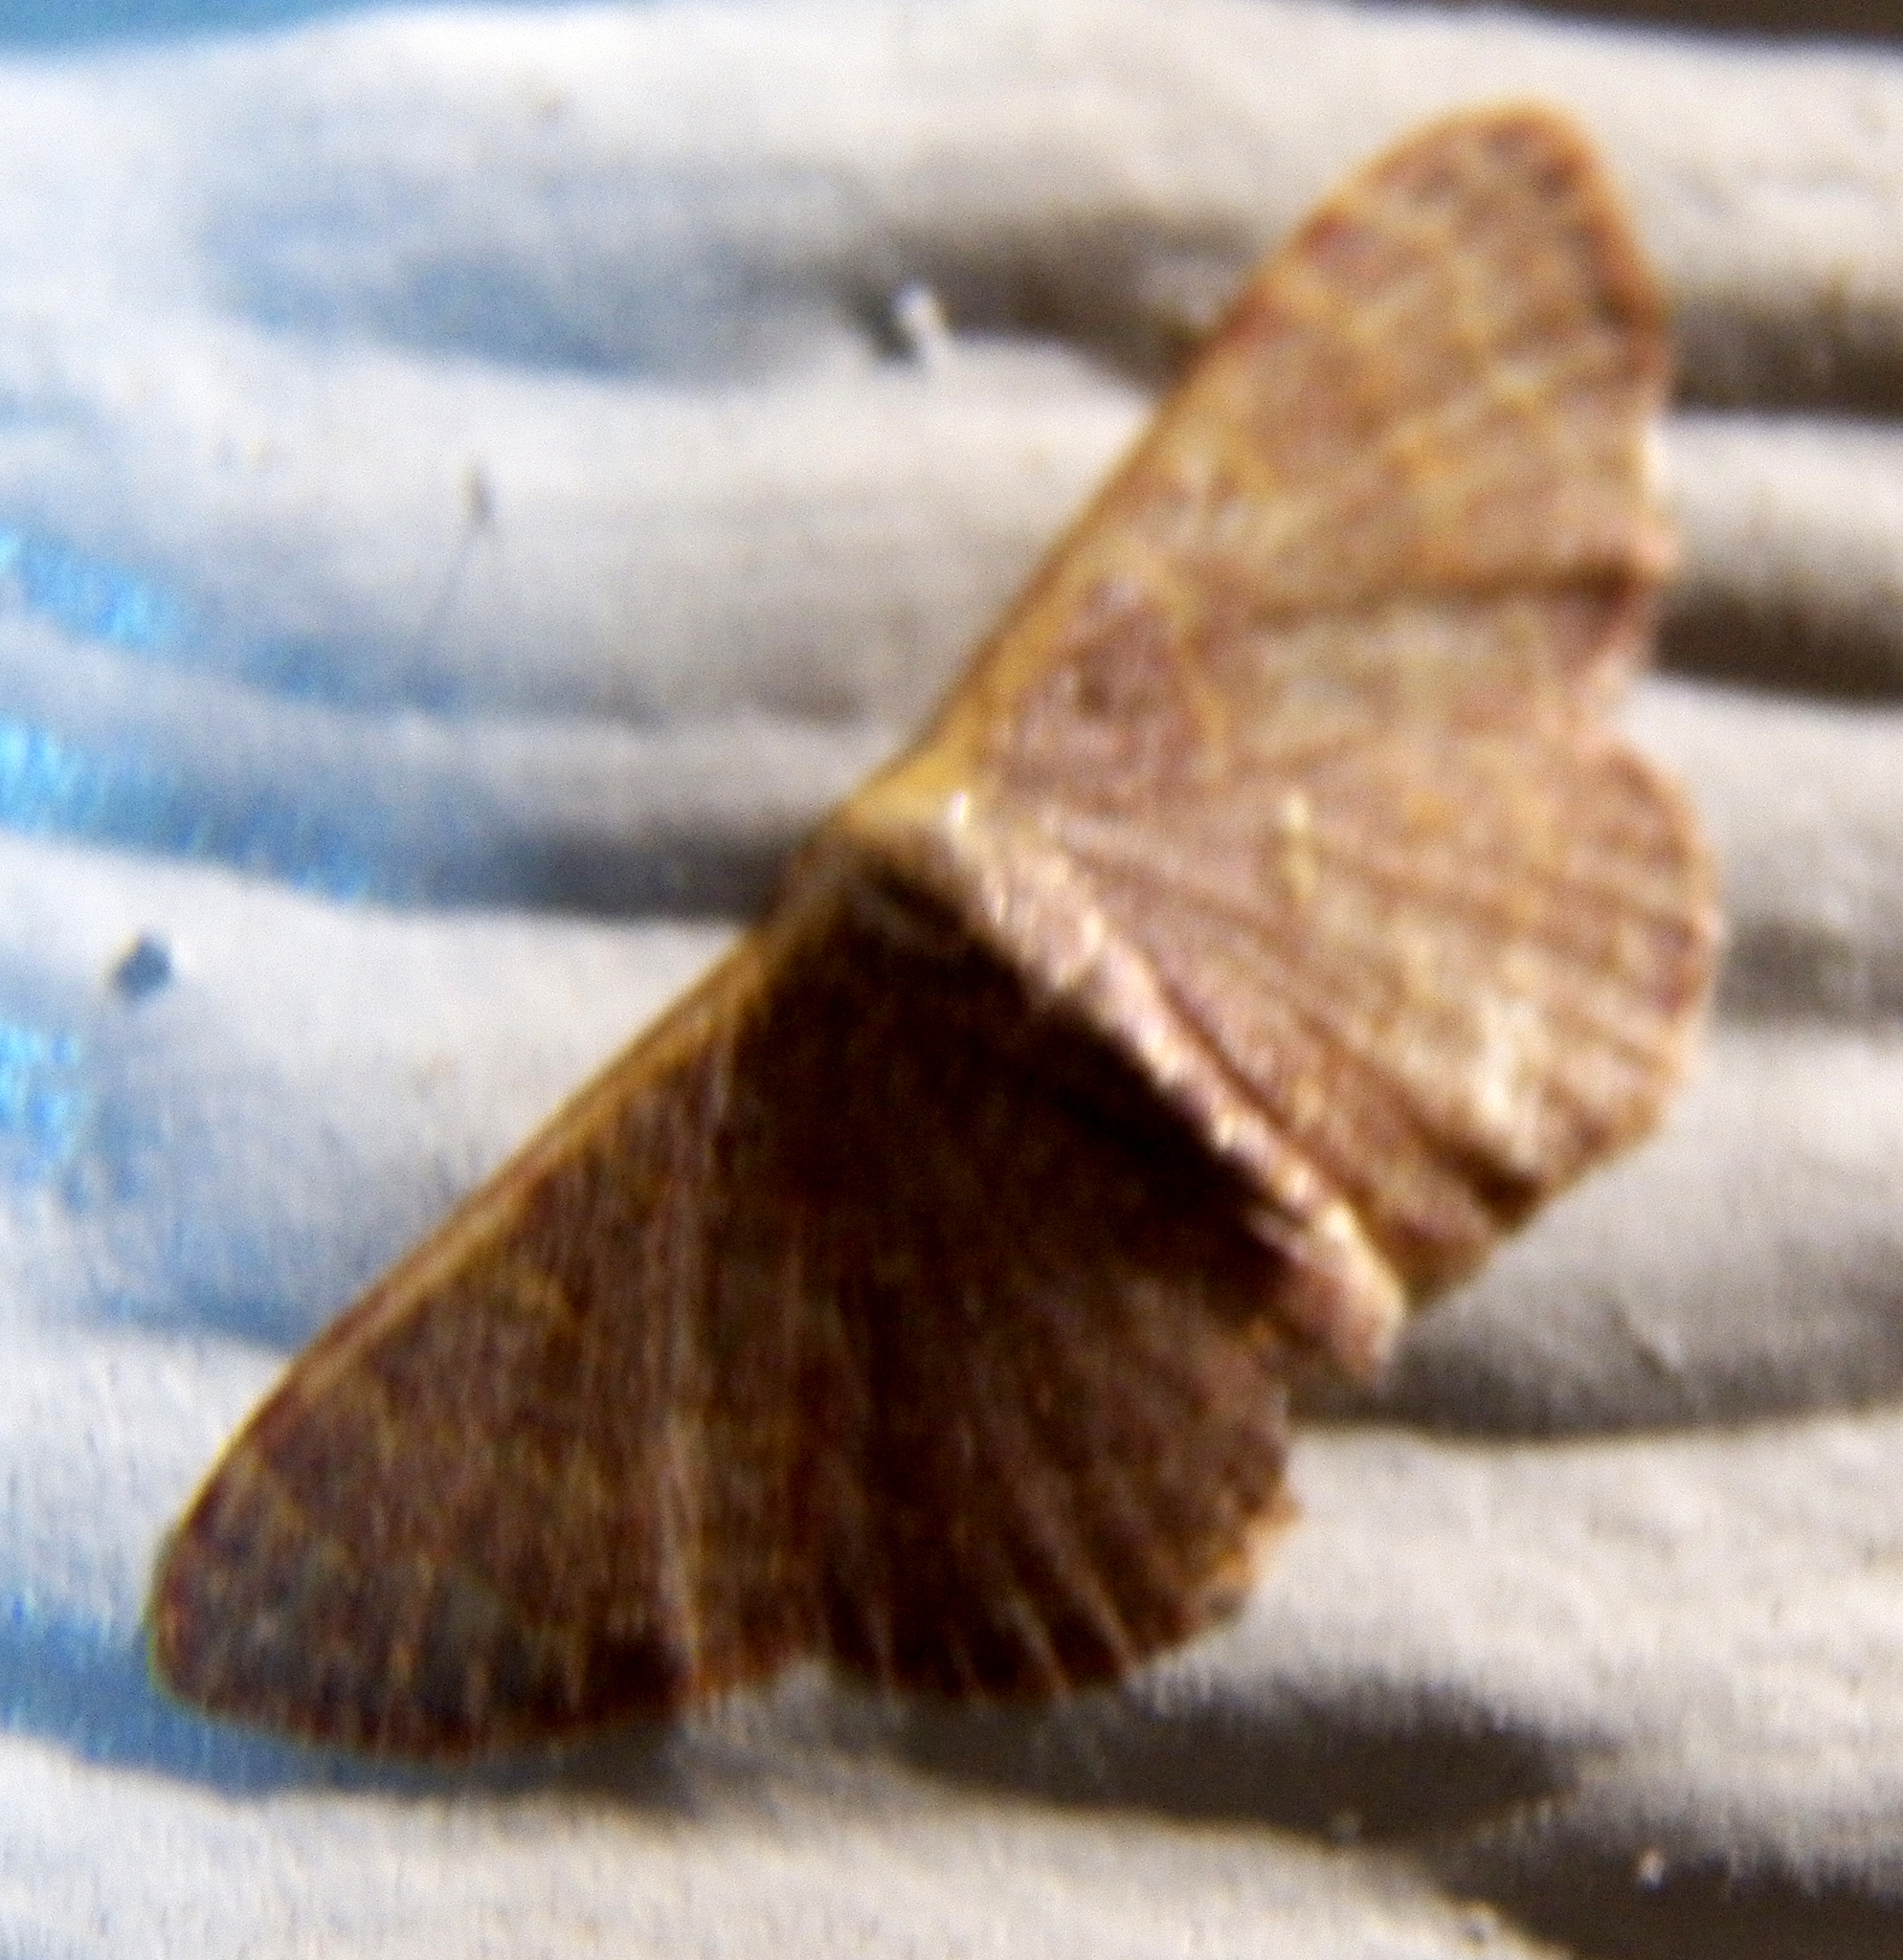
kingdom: Animalia
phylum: Arthropoda
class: Insecta
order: Lepidoptera
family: Geometridae
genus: Leptostales
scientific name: Leptostales pannaria
